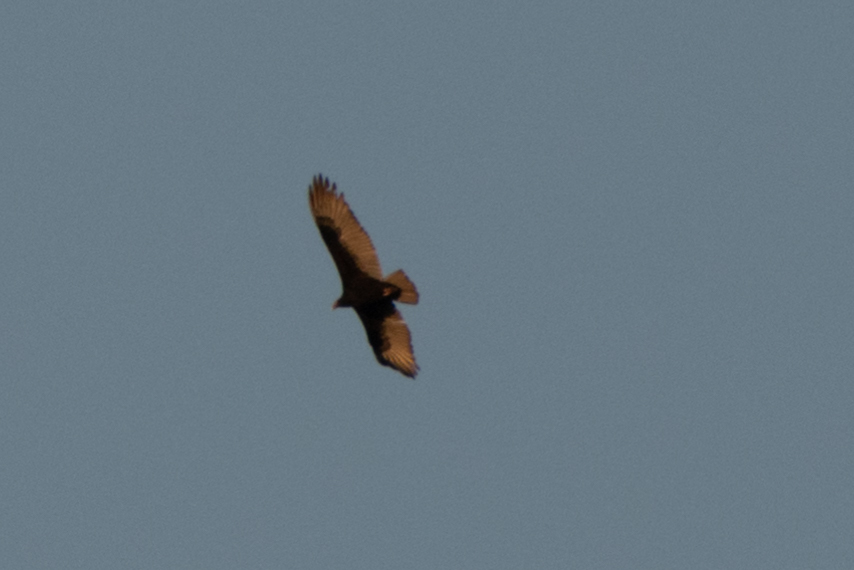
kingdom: Animalia
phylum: Chordata
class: Aves
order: Accipitriformes
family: Cathartidae
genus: Cathartes
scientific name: Cathartes aura
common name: Turkey vulture
